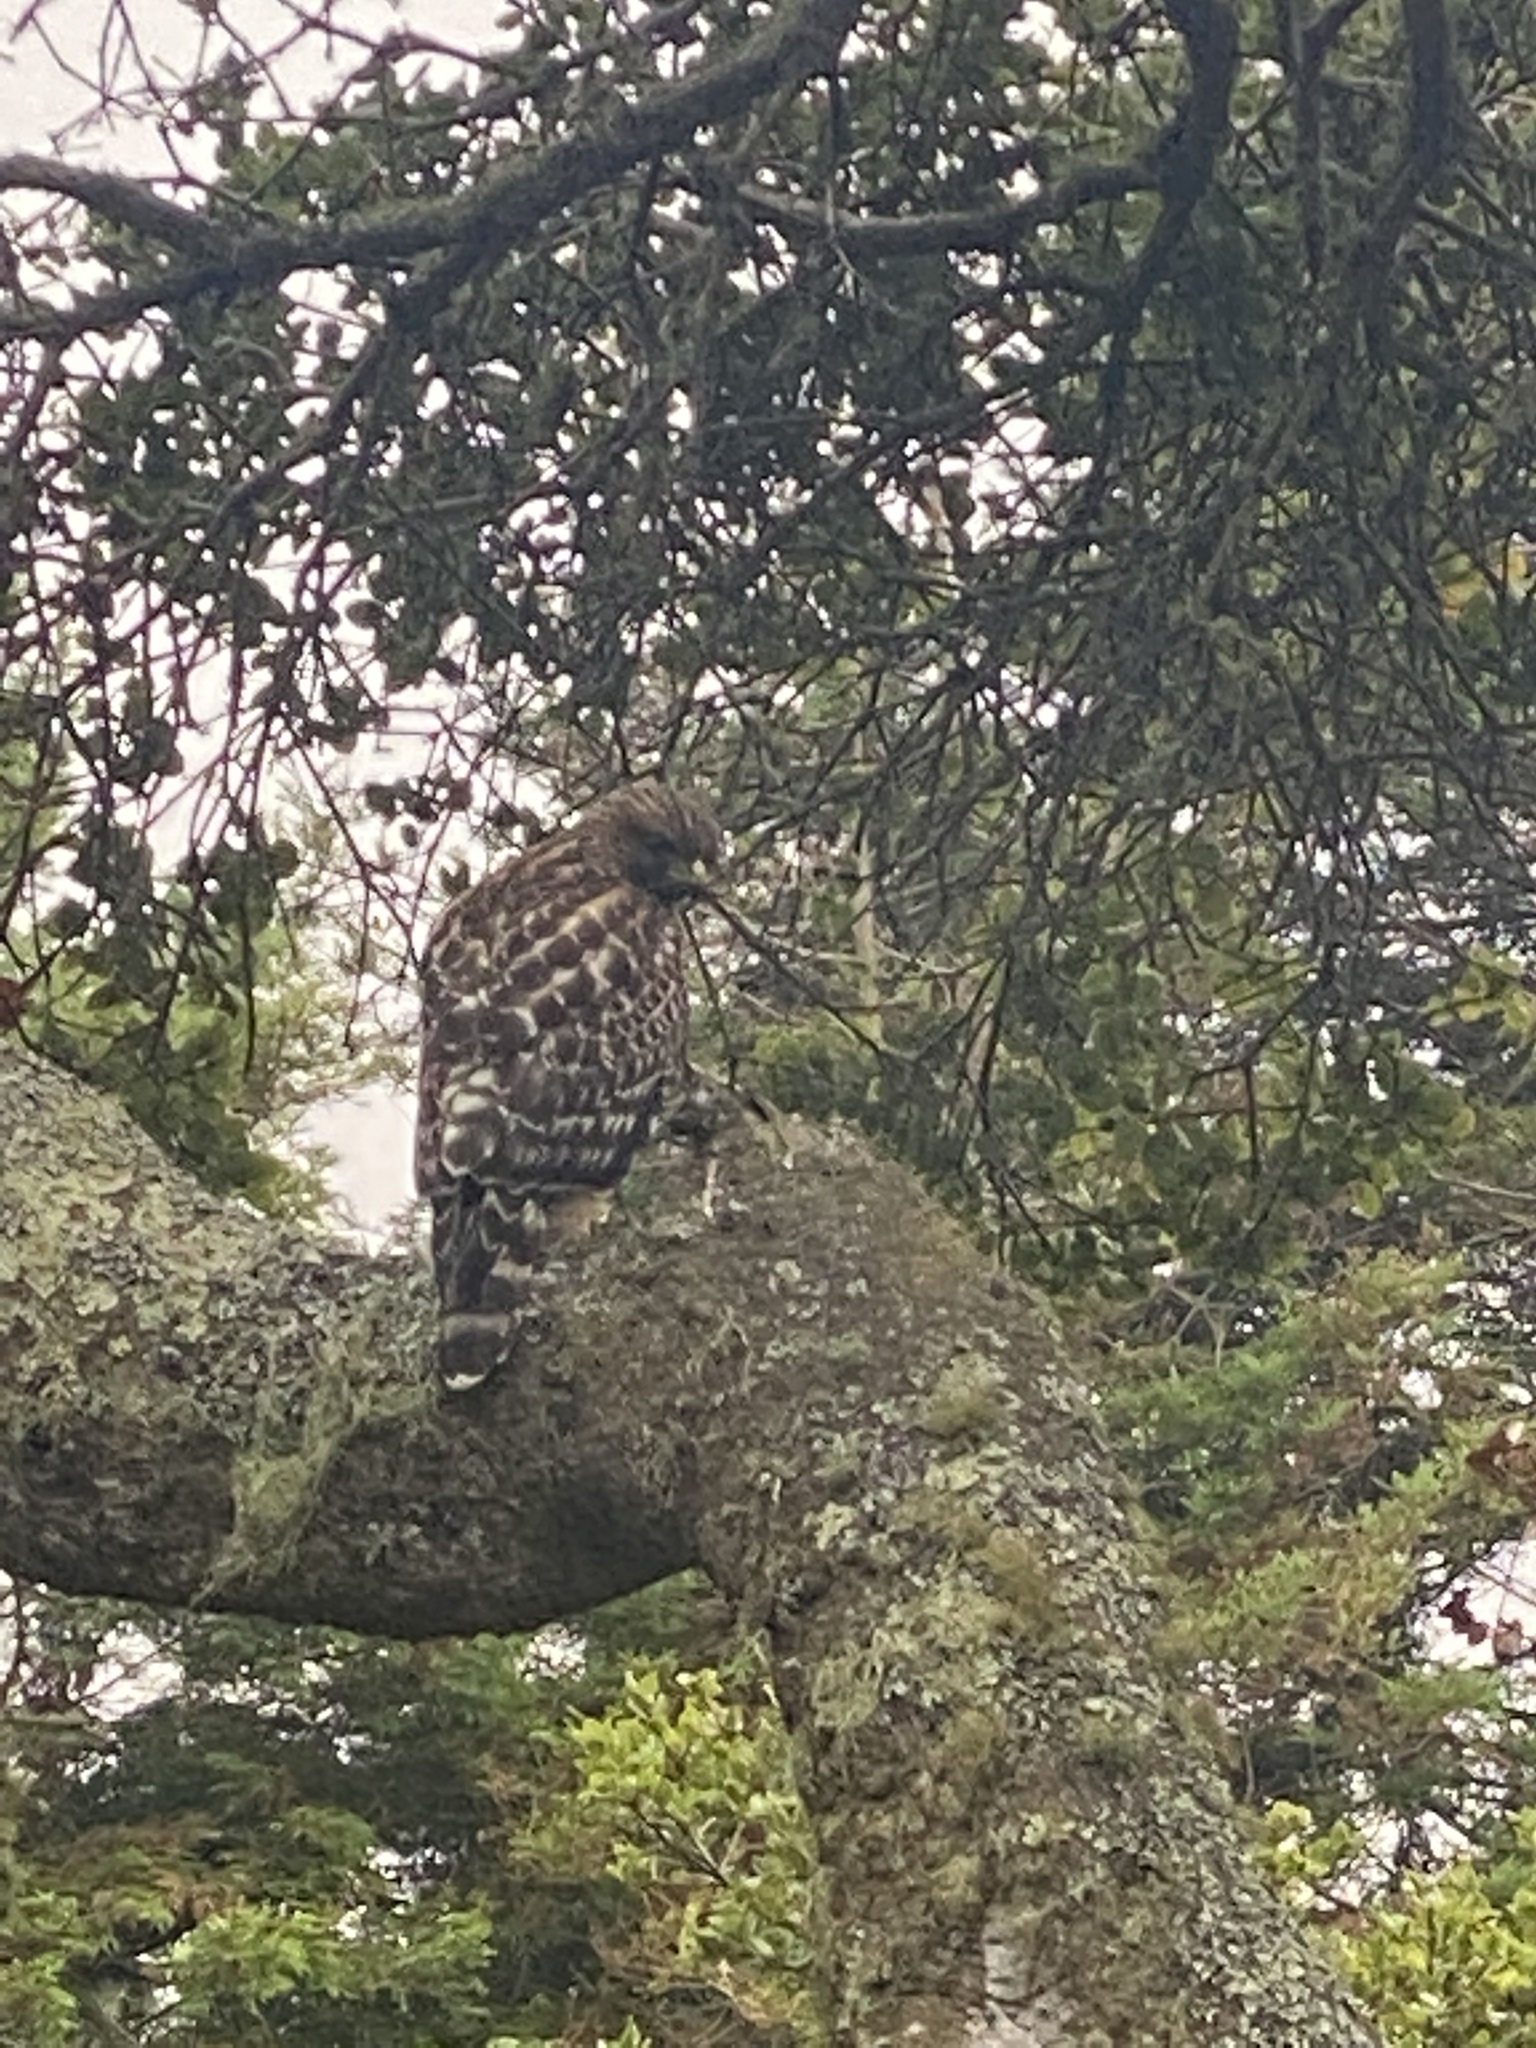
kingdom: Animalia
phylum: Chordata
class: Aves
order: Accipitriformes
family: Accipitridae
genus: Buteo
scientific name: Buteo lineatus
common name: Red-shouldered hawk
